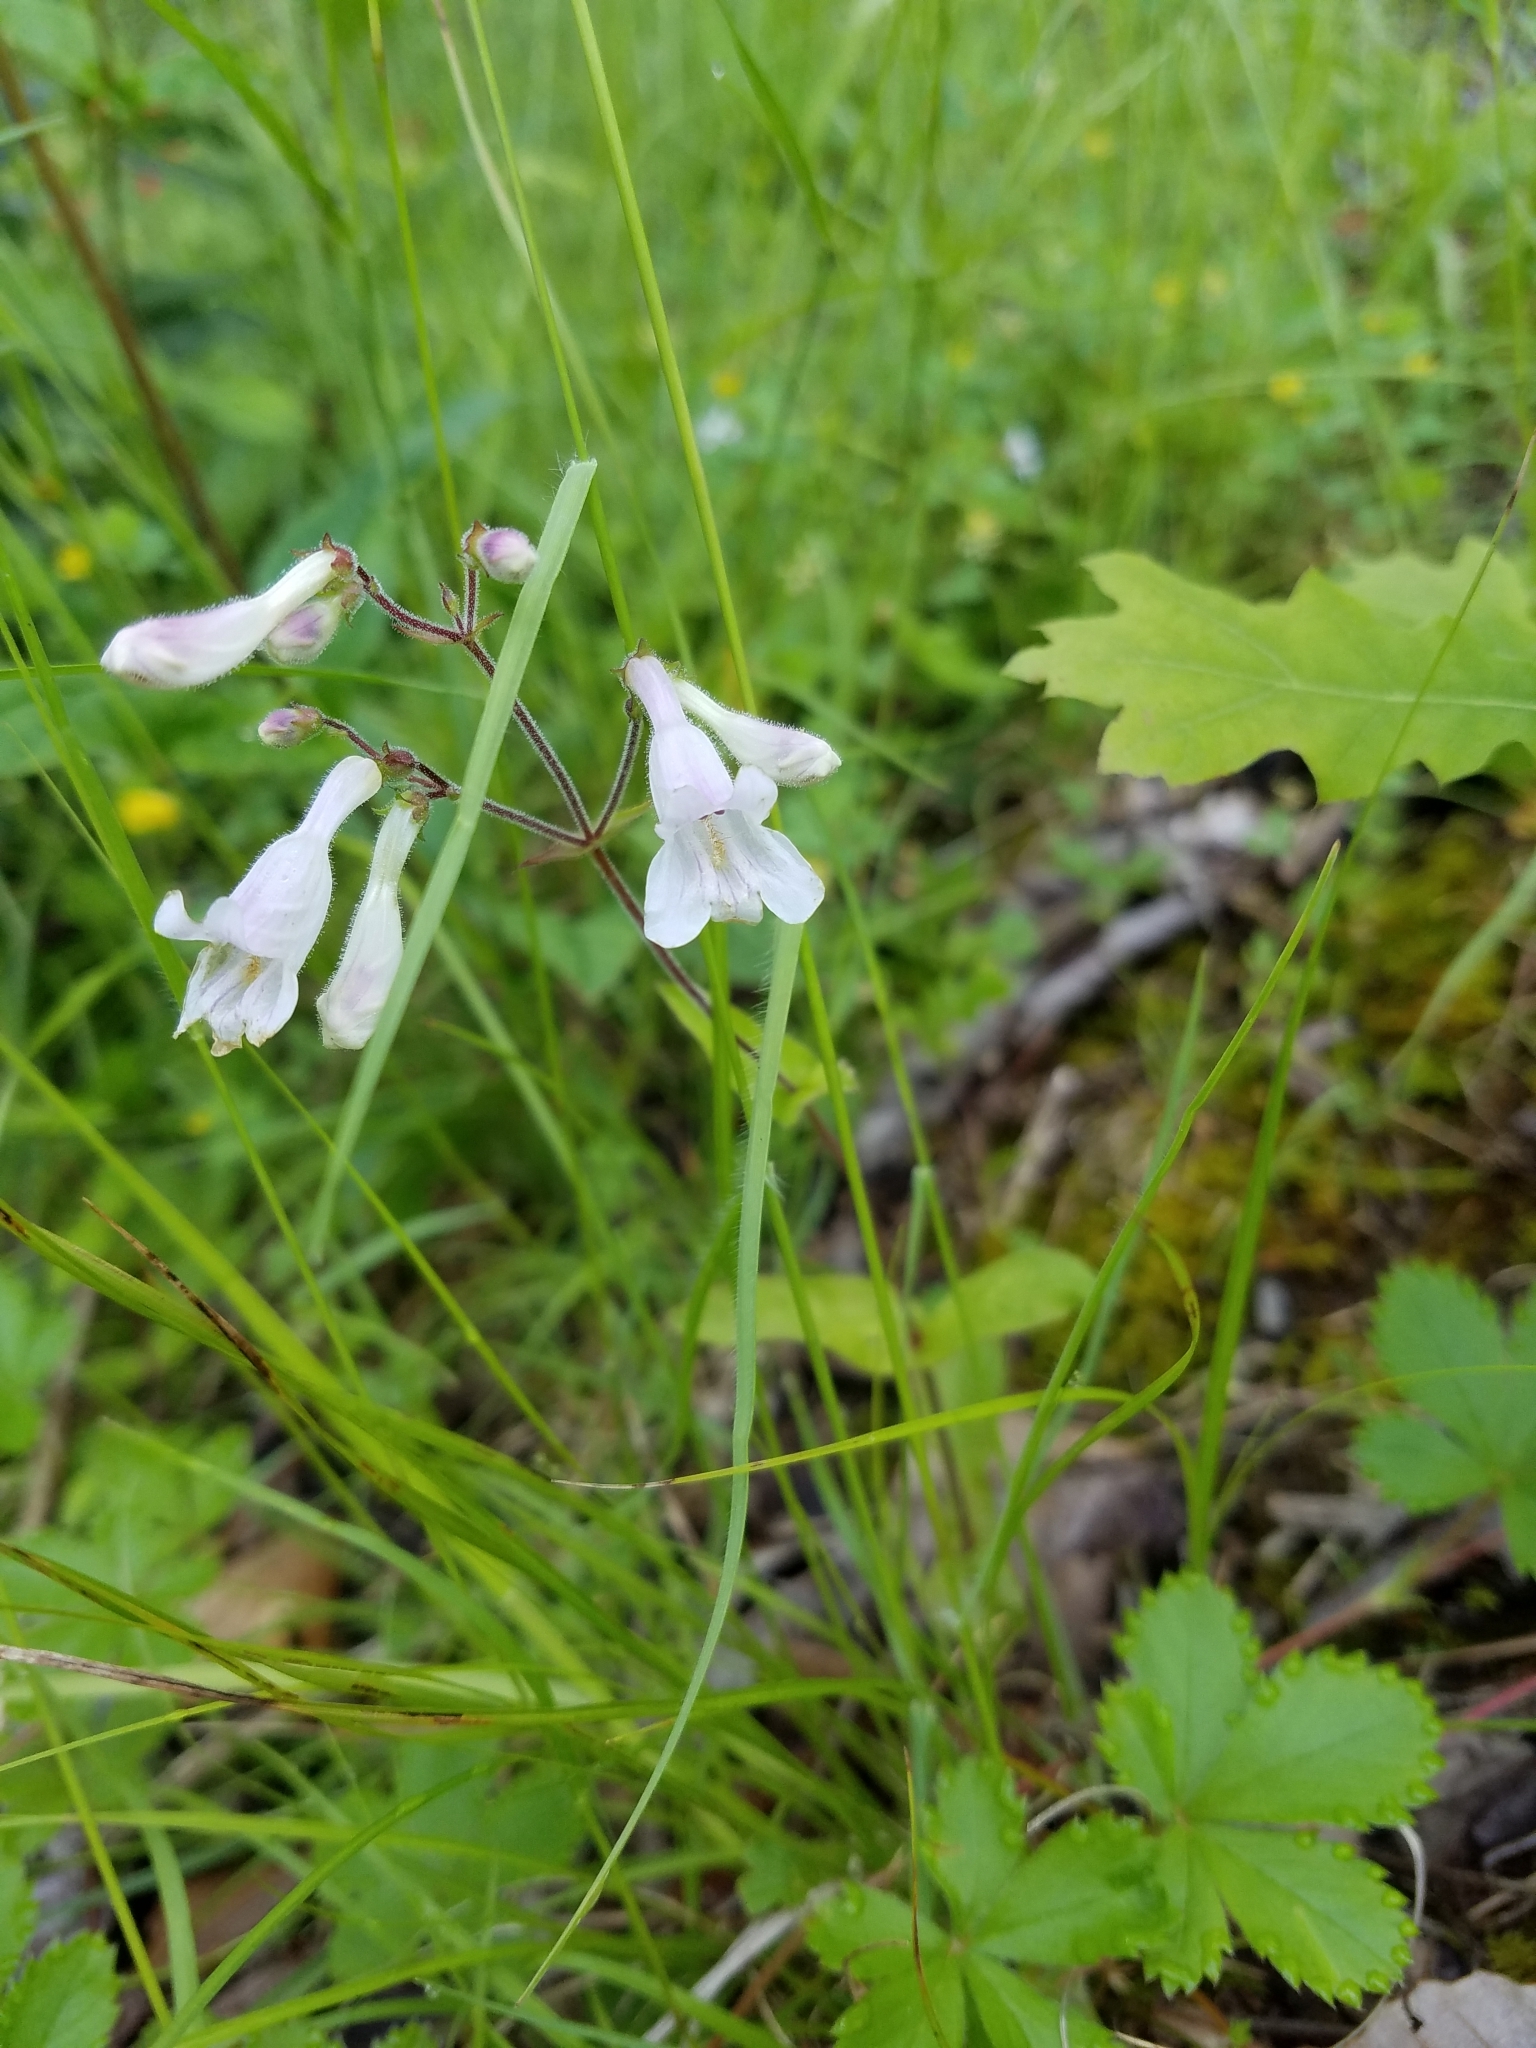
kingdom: Plantae
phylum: Tracheophyta
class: Magnoliopsida
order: Lamiales
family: Plantaginaceae
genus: Penstemon
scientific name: Penstemon canescens
